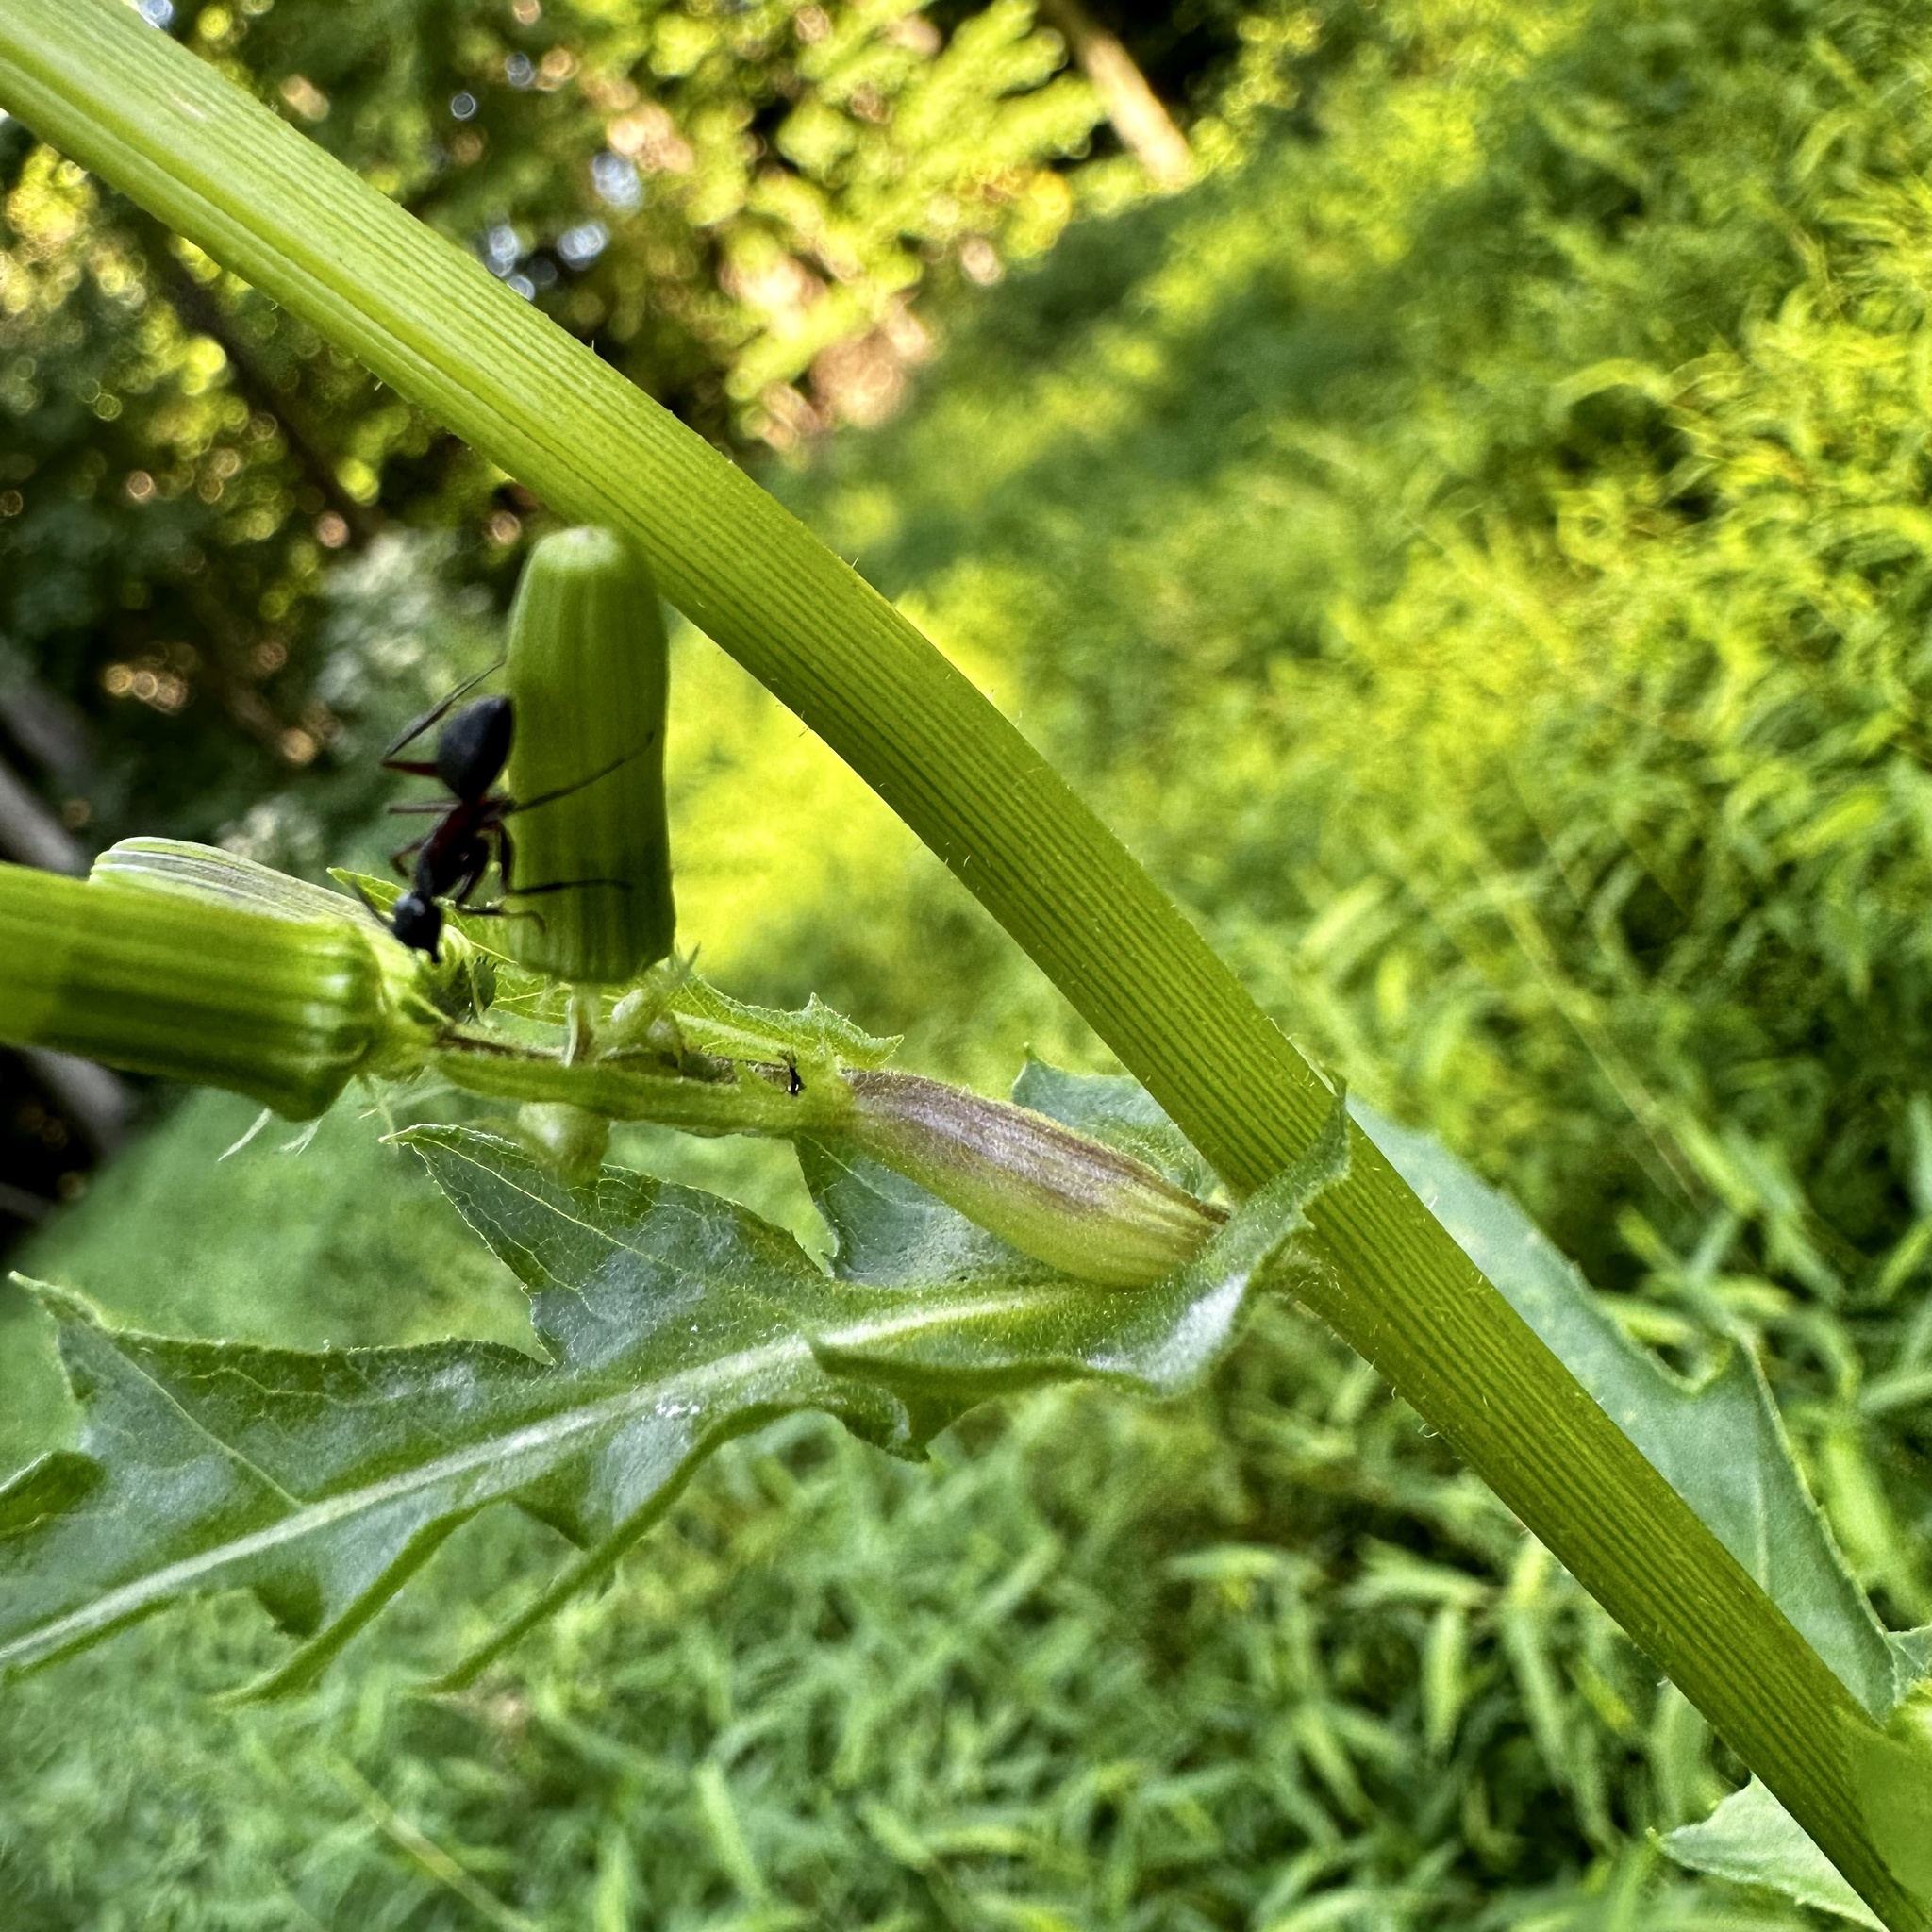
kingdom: Plantae
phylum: Tracheophyta
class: Magnoliopsida
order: Asterales
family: Asteraceae
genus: Erechtites
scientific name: Erechtites hieraciifolius
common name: American burnweed
